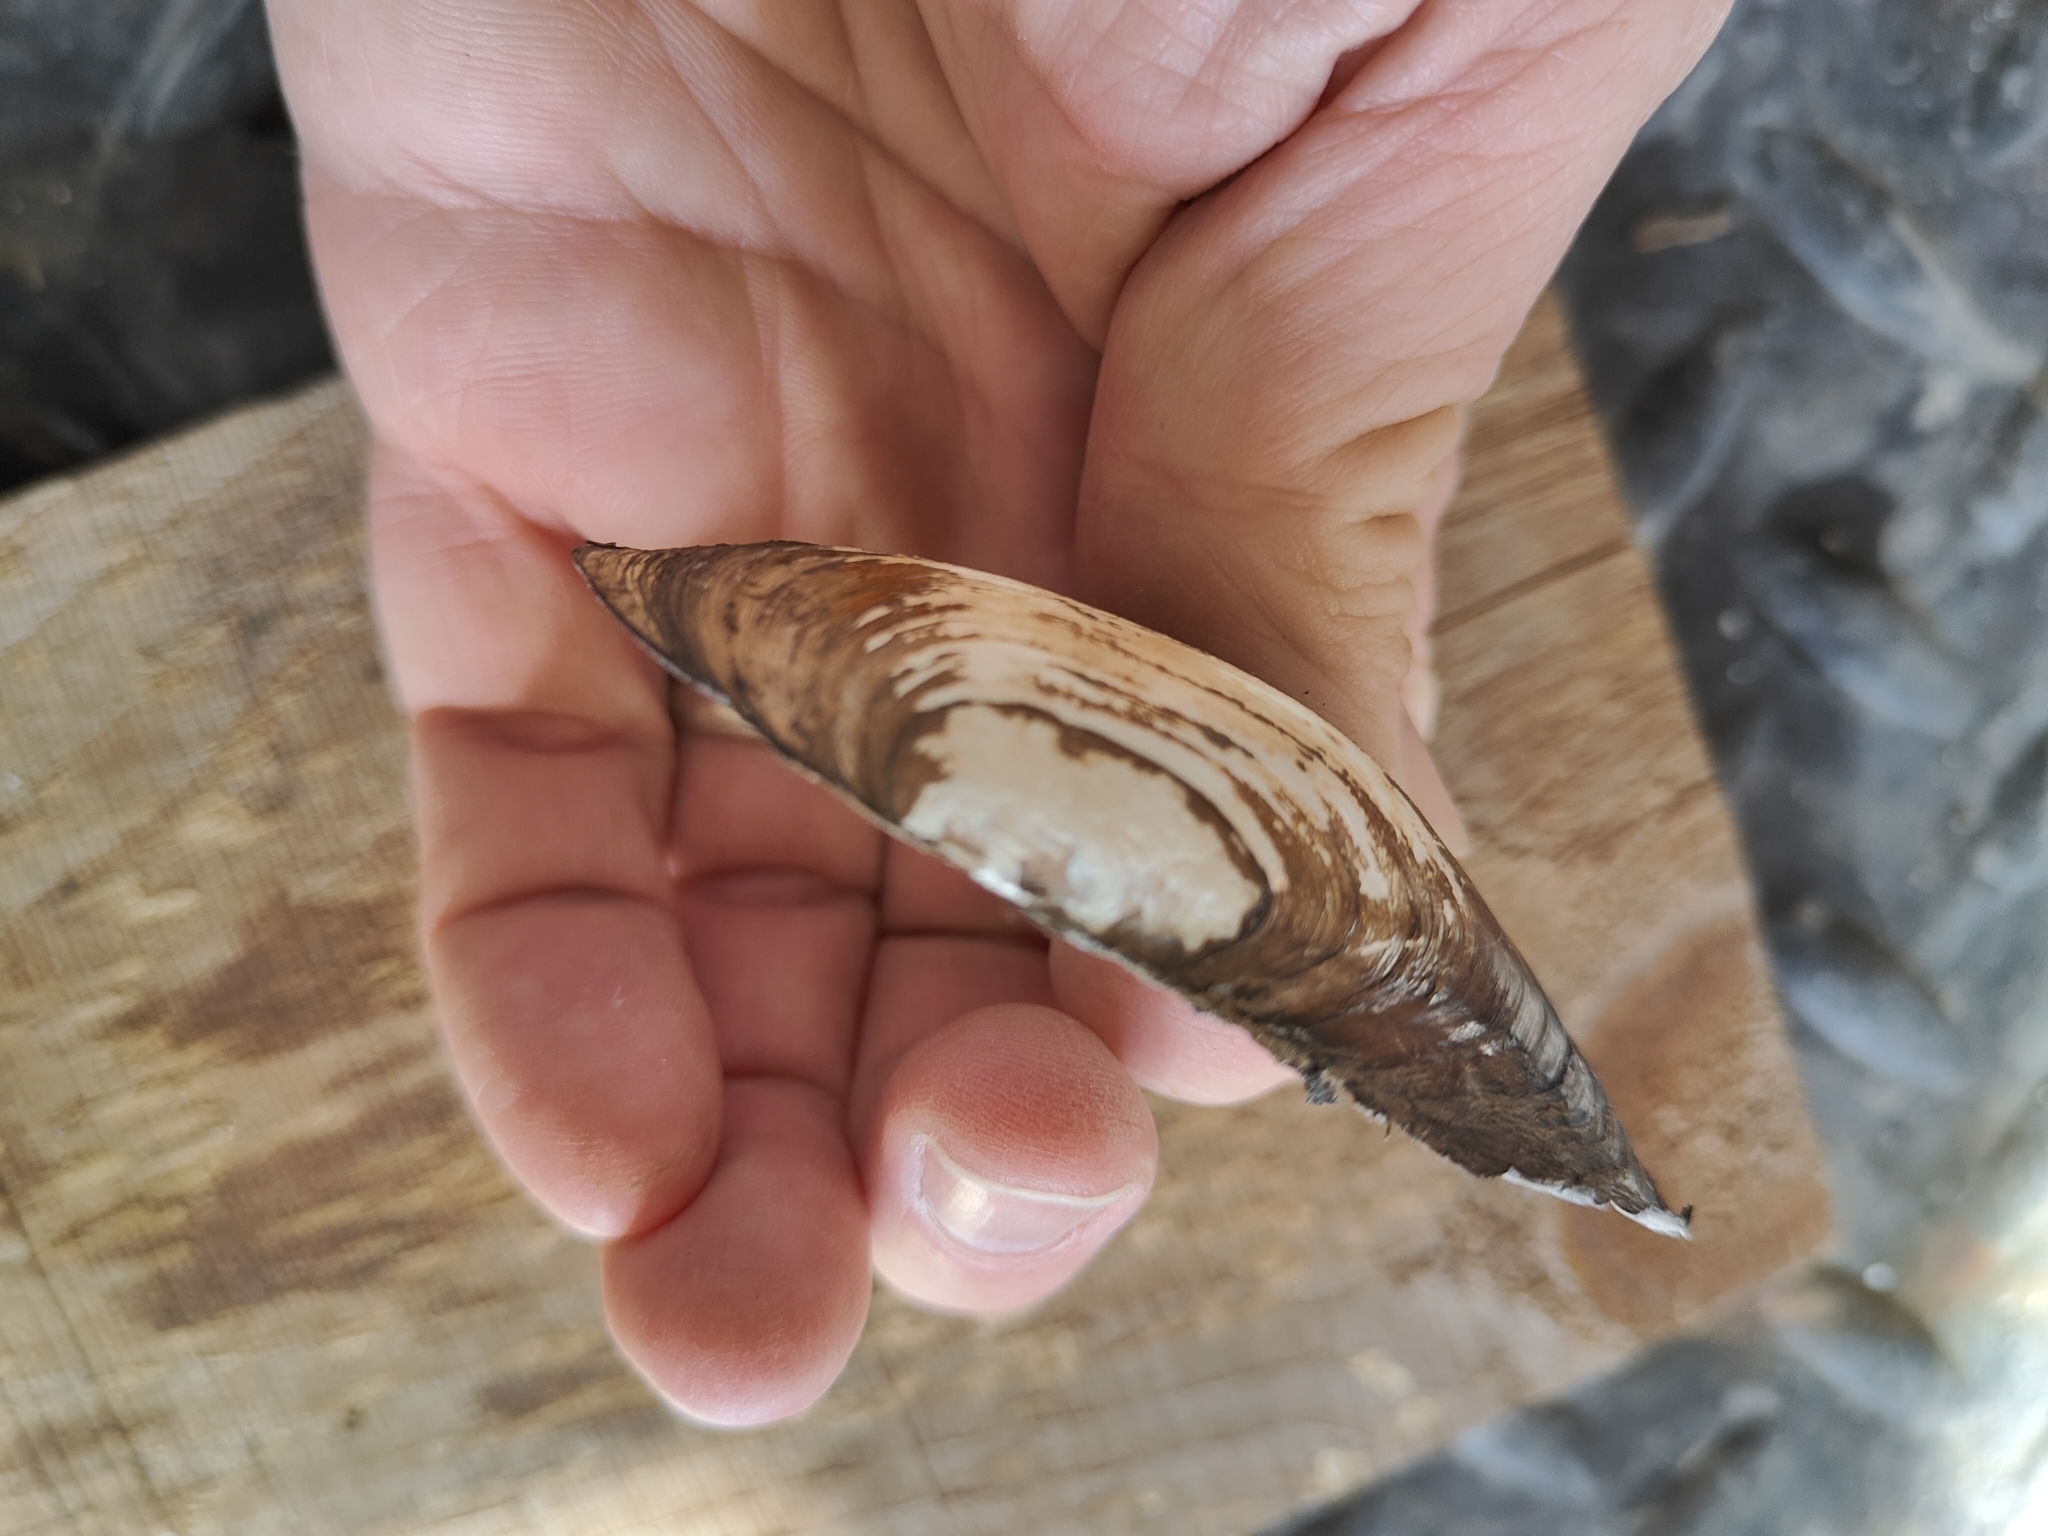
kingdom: Animalia
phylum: Mollusca
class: Bivalvia
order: Unionida
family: Unionidae
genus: Utterbackia
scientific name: Utterbackia imbecillis
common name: Paper pondshell
